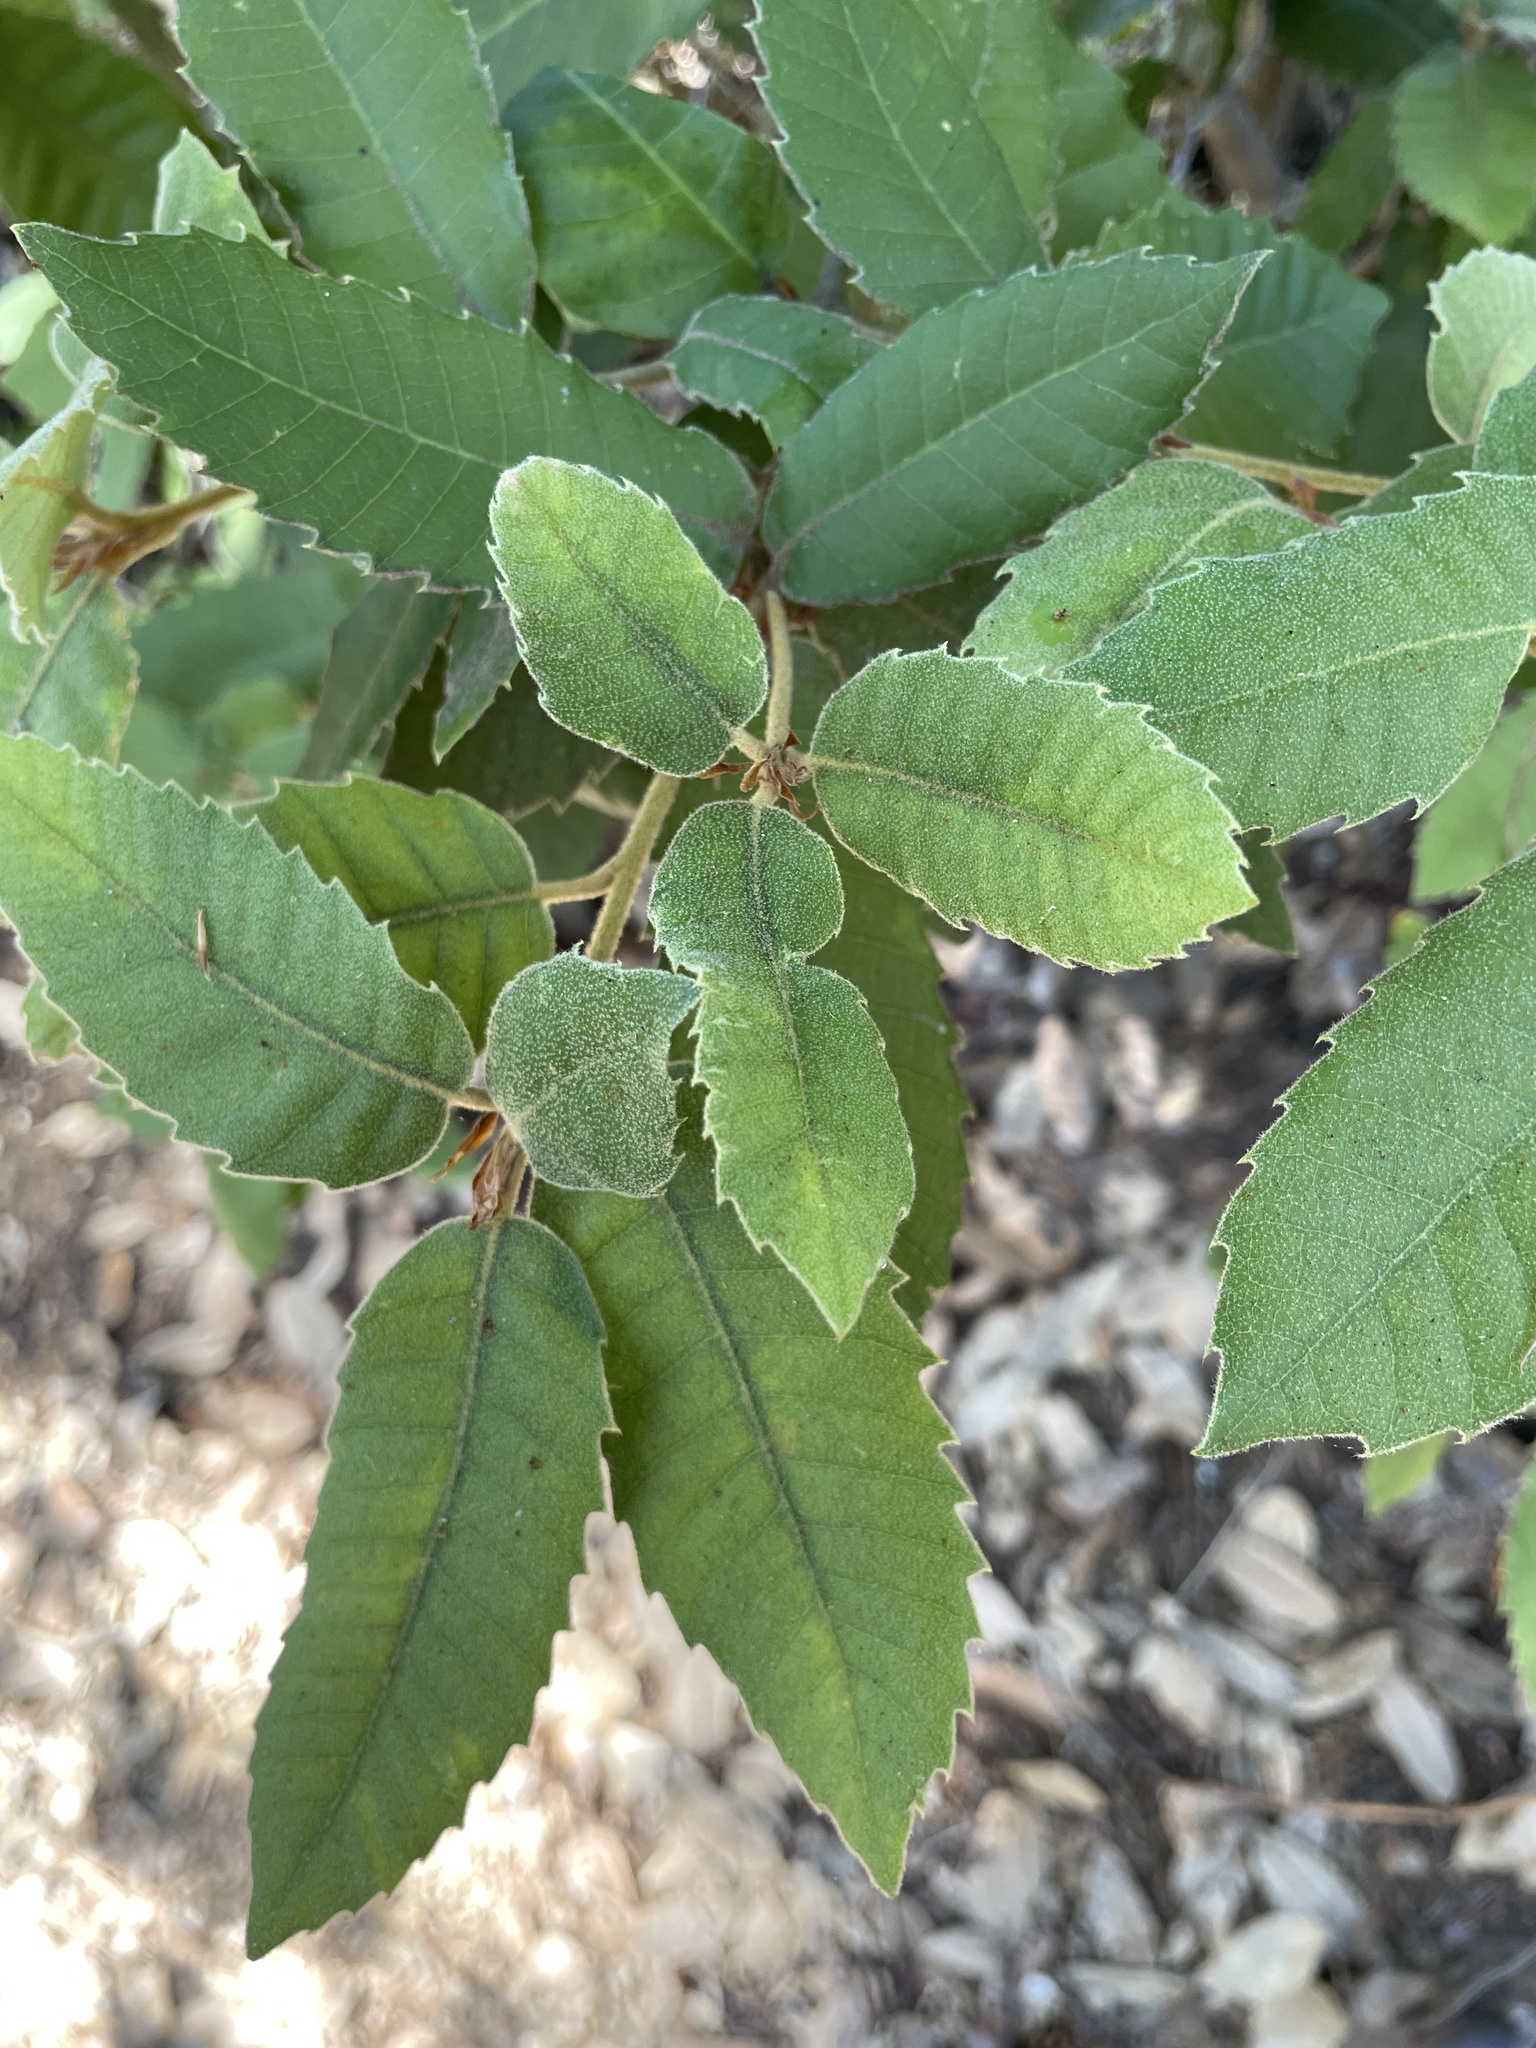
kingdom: Plantae
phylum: Tracheophyta
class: Magnoliopsida
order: Fagales
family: Fagaceae
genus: Notholithocarpus
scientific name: Notholithocarpus densiflorus
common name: Tan bark oak
